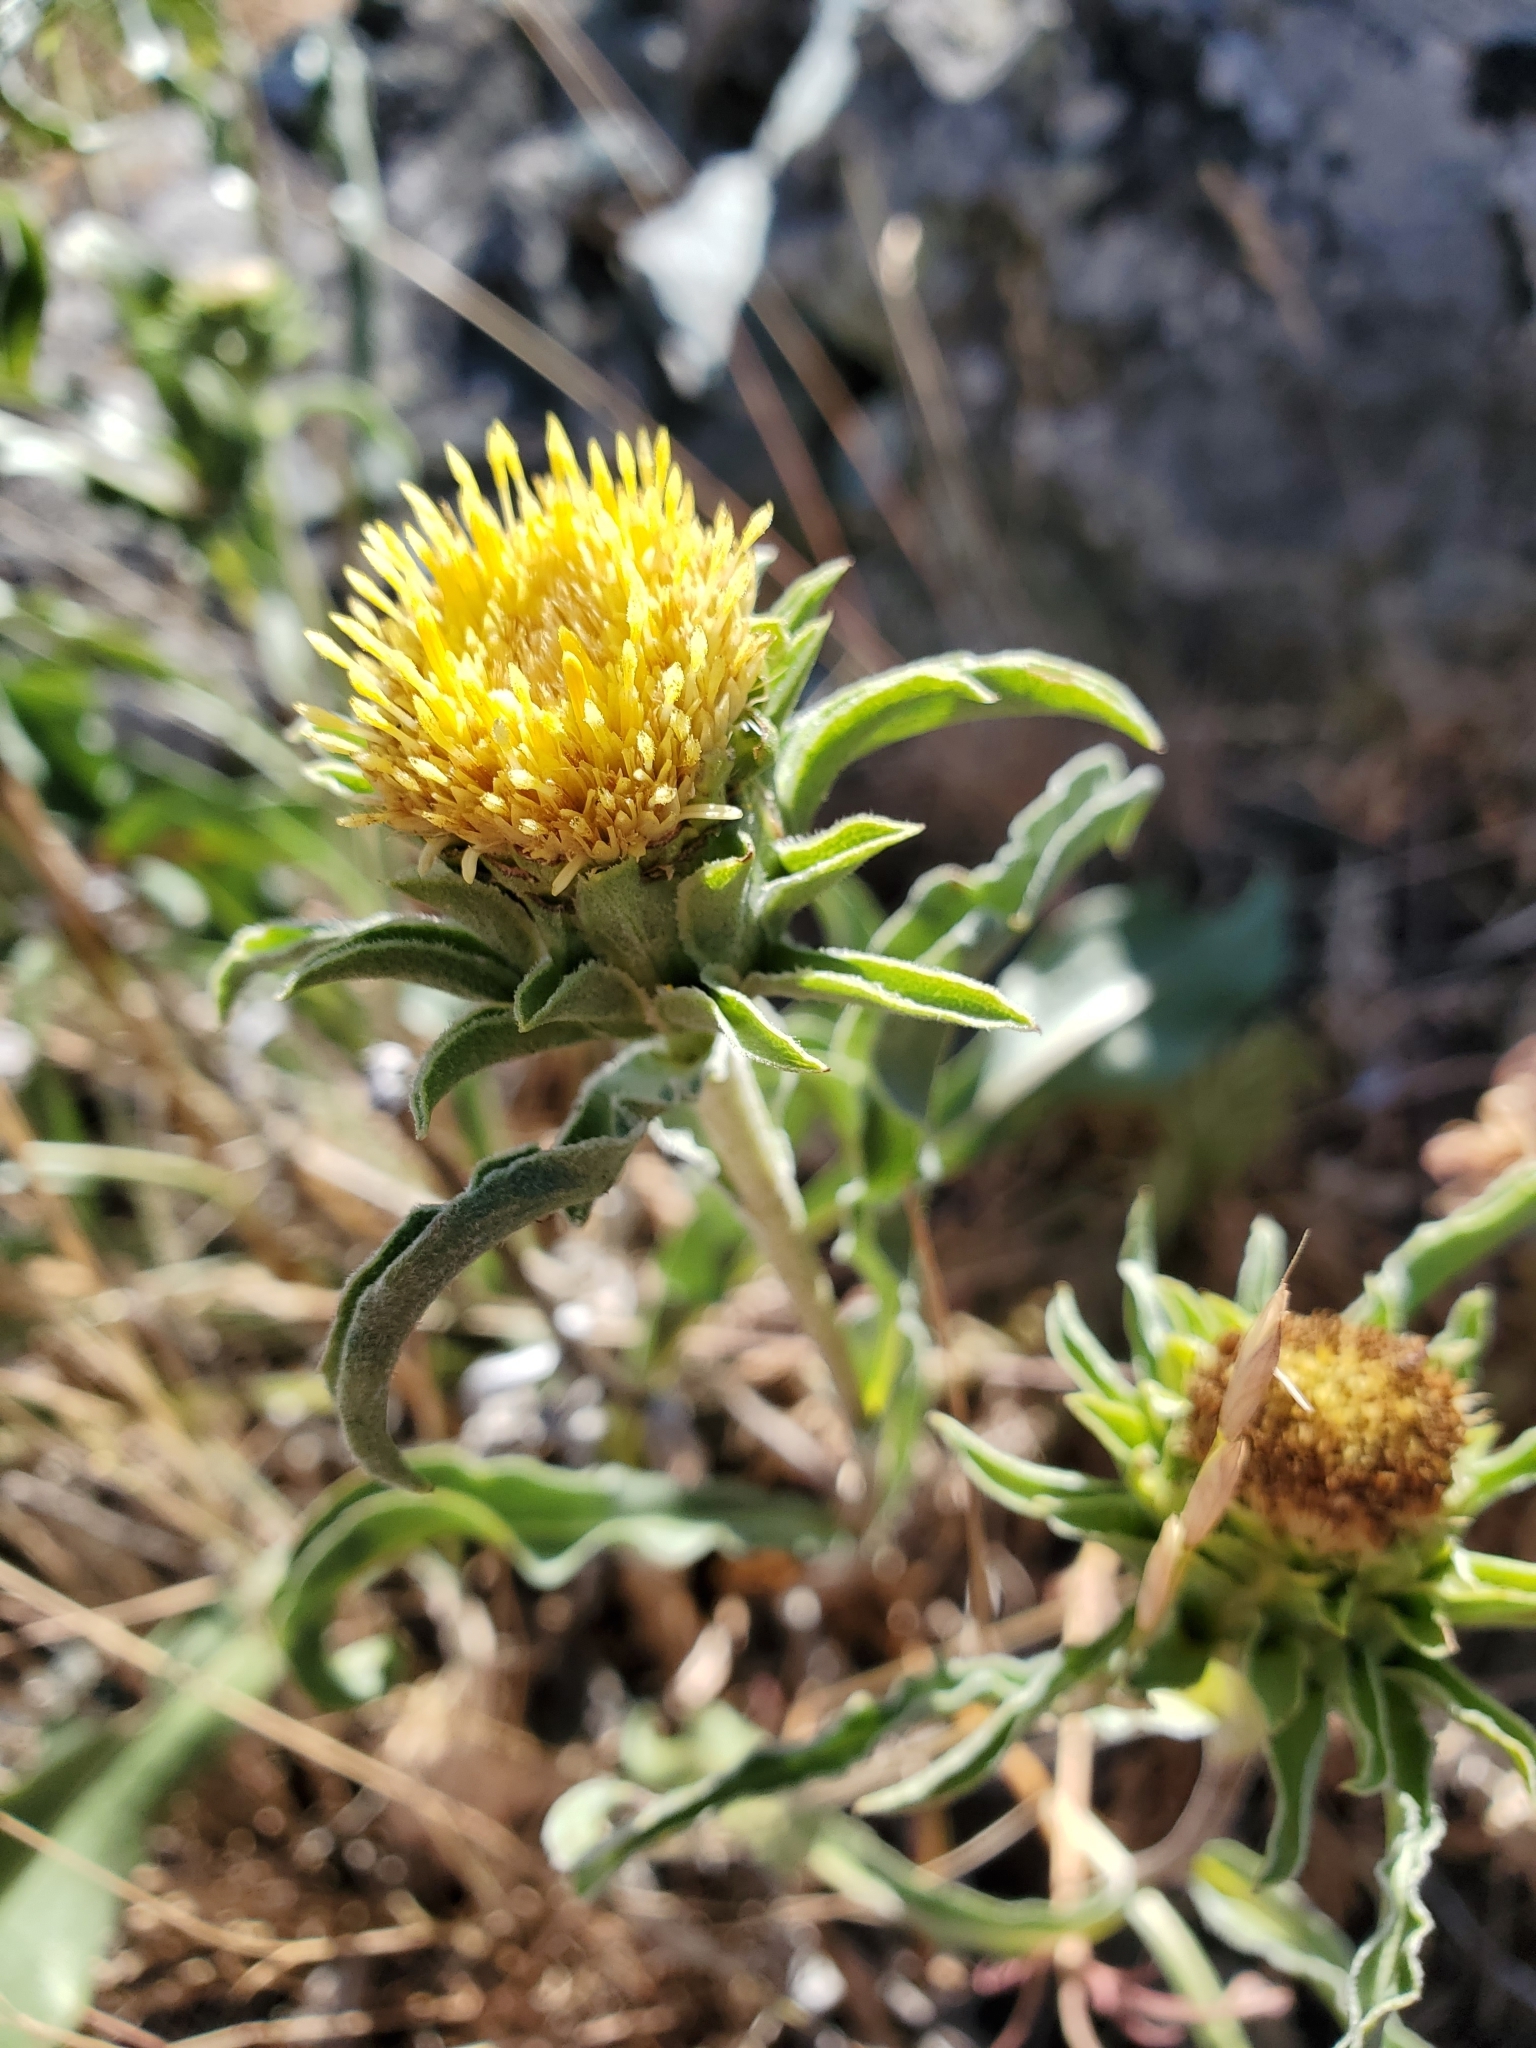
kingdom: Plantae
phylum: Tracheophyta
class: Magnoliopsida
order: Asterales
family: Asteraceae
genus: Pyrrocoma
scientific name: Pyrrocoma carthamoides
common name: Large-flower goldenweed
